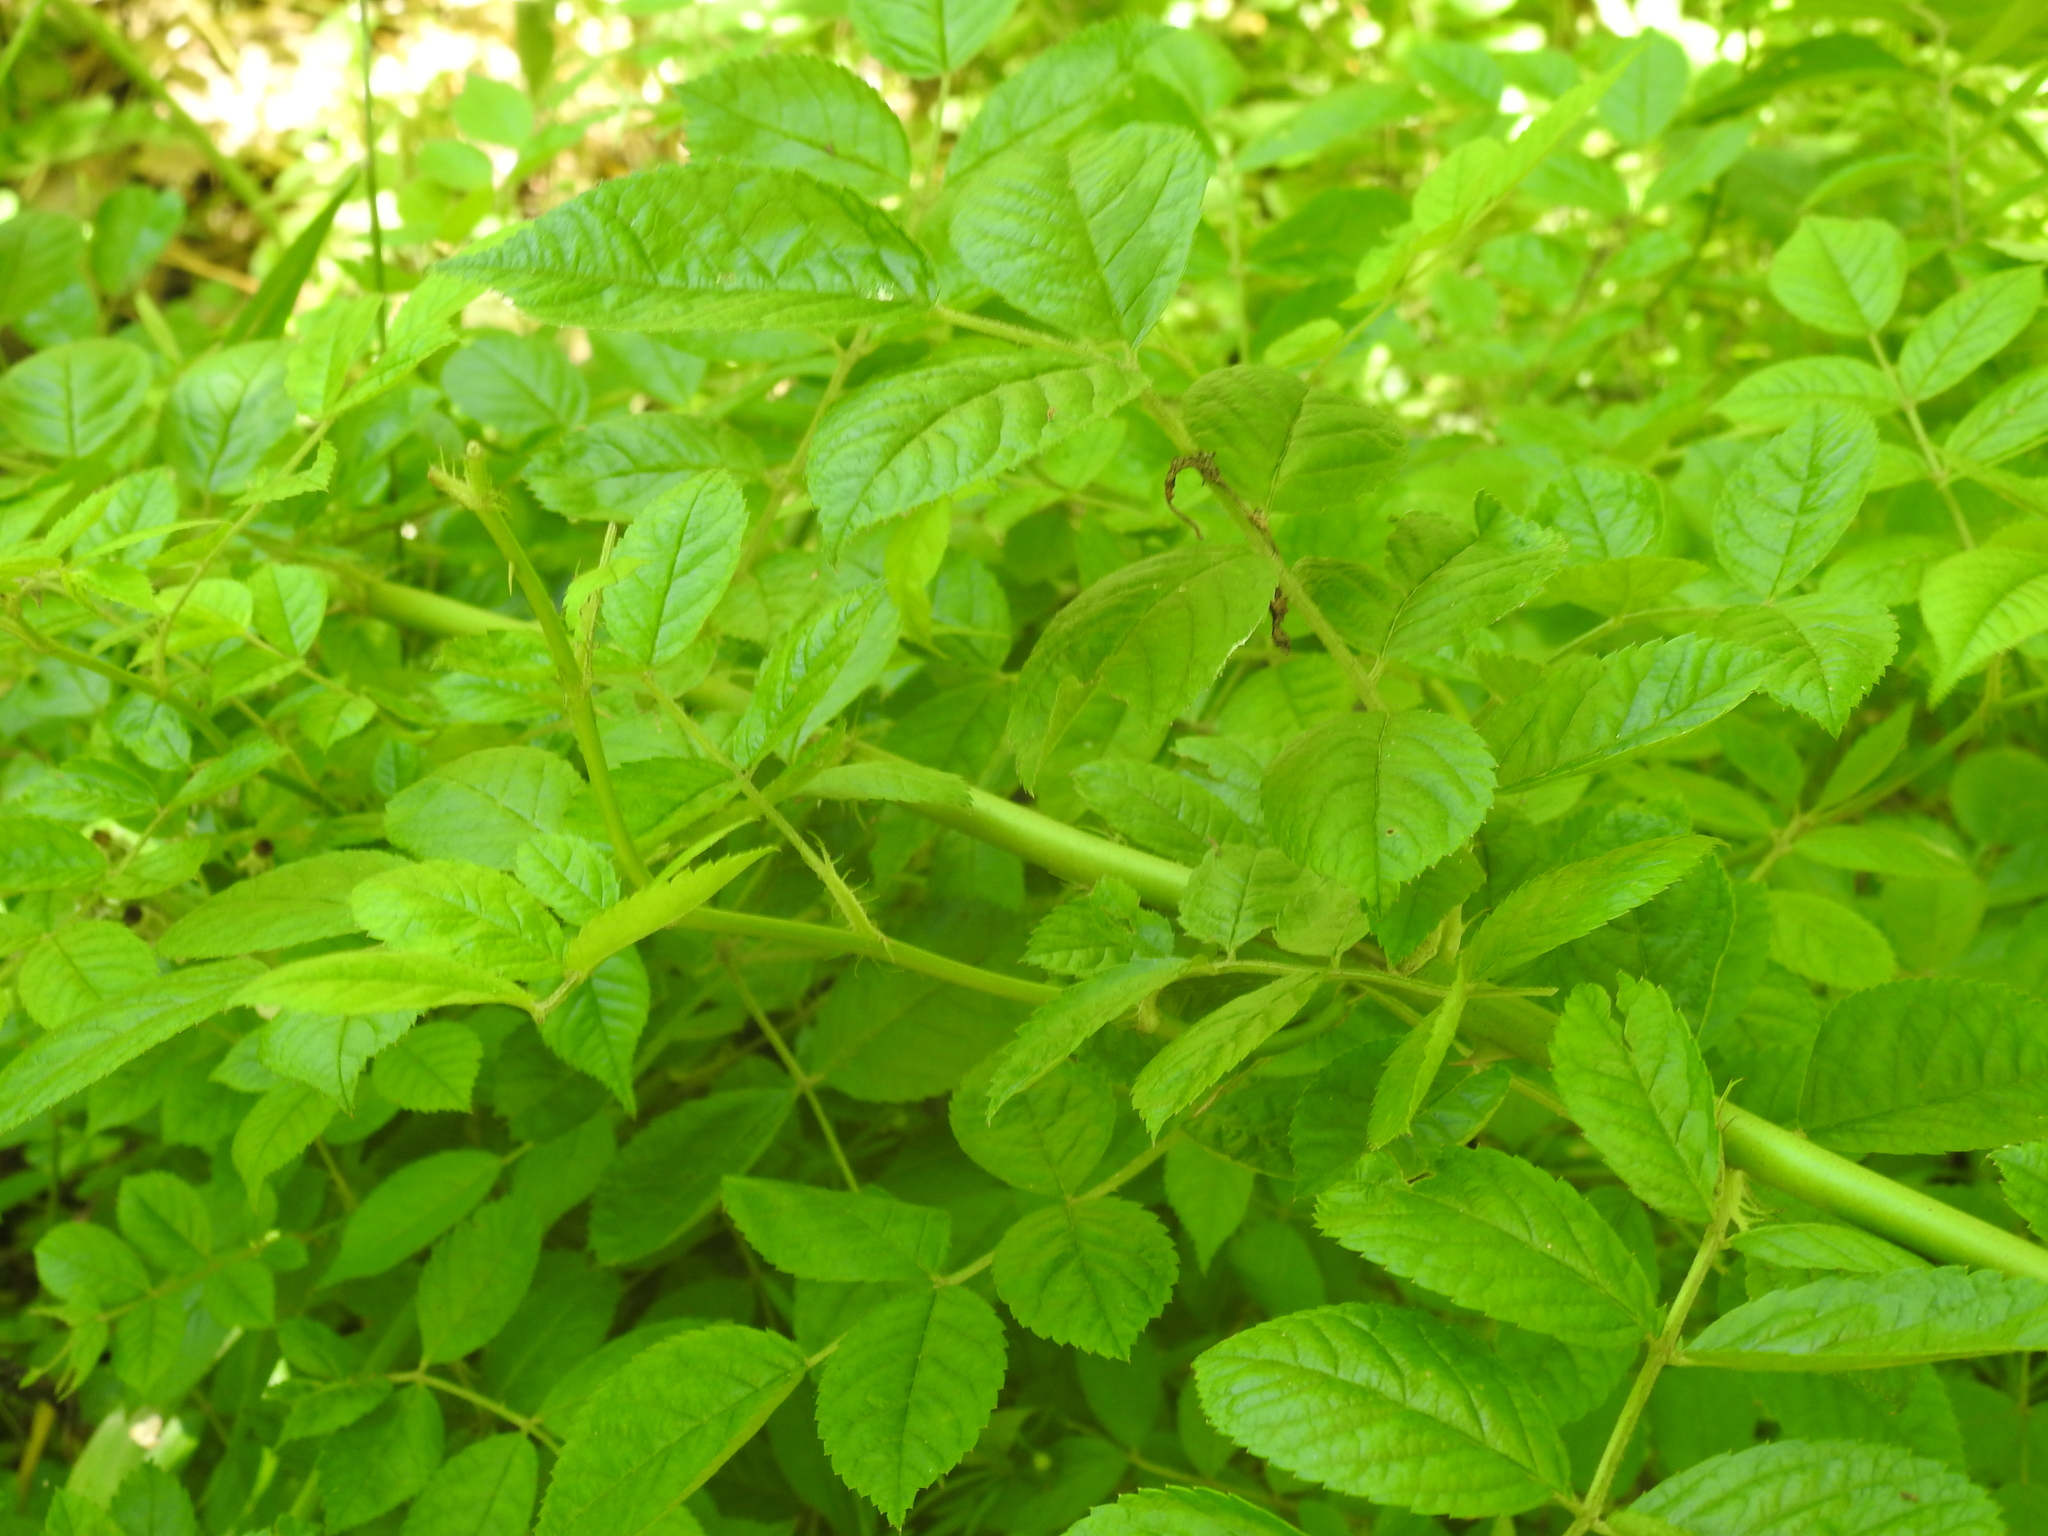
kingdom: Plantae
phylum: Tracheophyta
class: Magnoliopsida
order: Rosales
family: Rosaceae
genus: Rosa
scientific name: Rosa multiflora
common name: Multiflora rose
